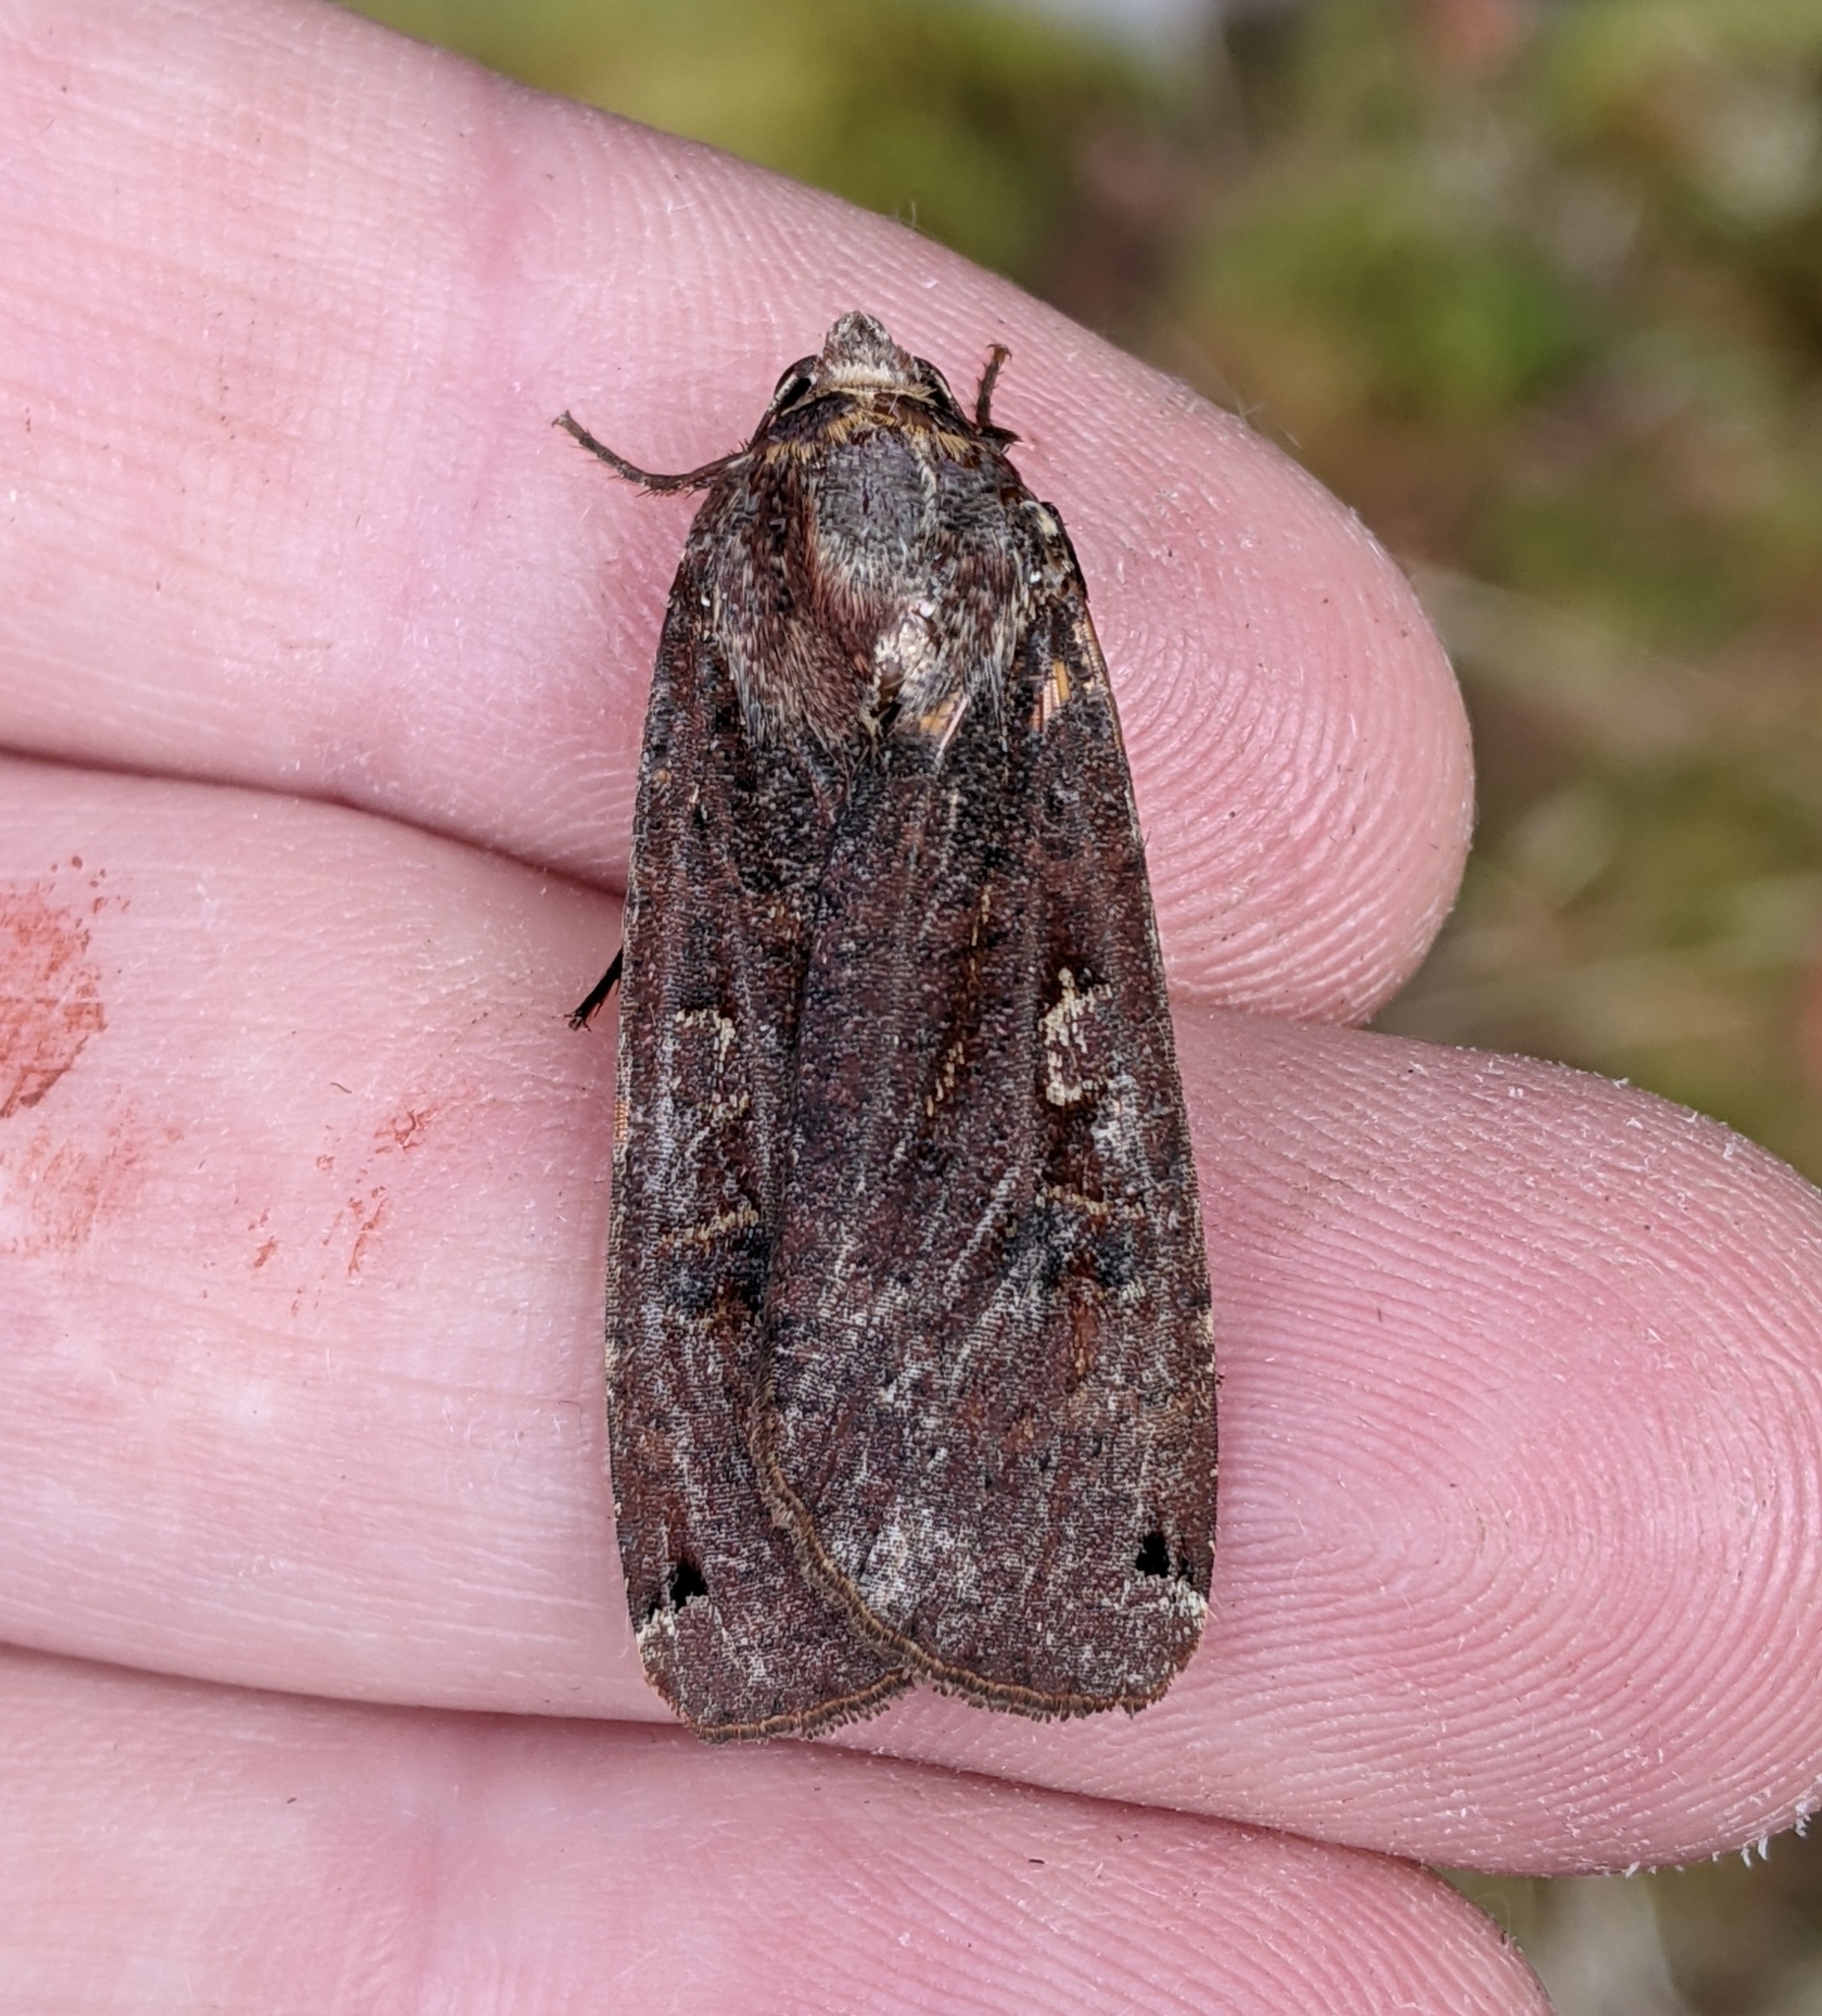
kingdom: Animalia
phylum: Arthropoda
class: Insecta
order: Lepidoptera
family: Noctuidae
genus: Noctua
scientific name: Noctua pronuba
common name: Large yellow underwing
